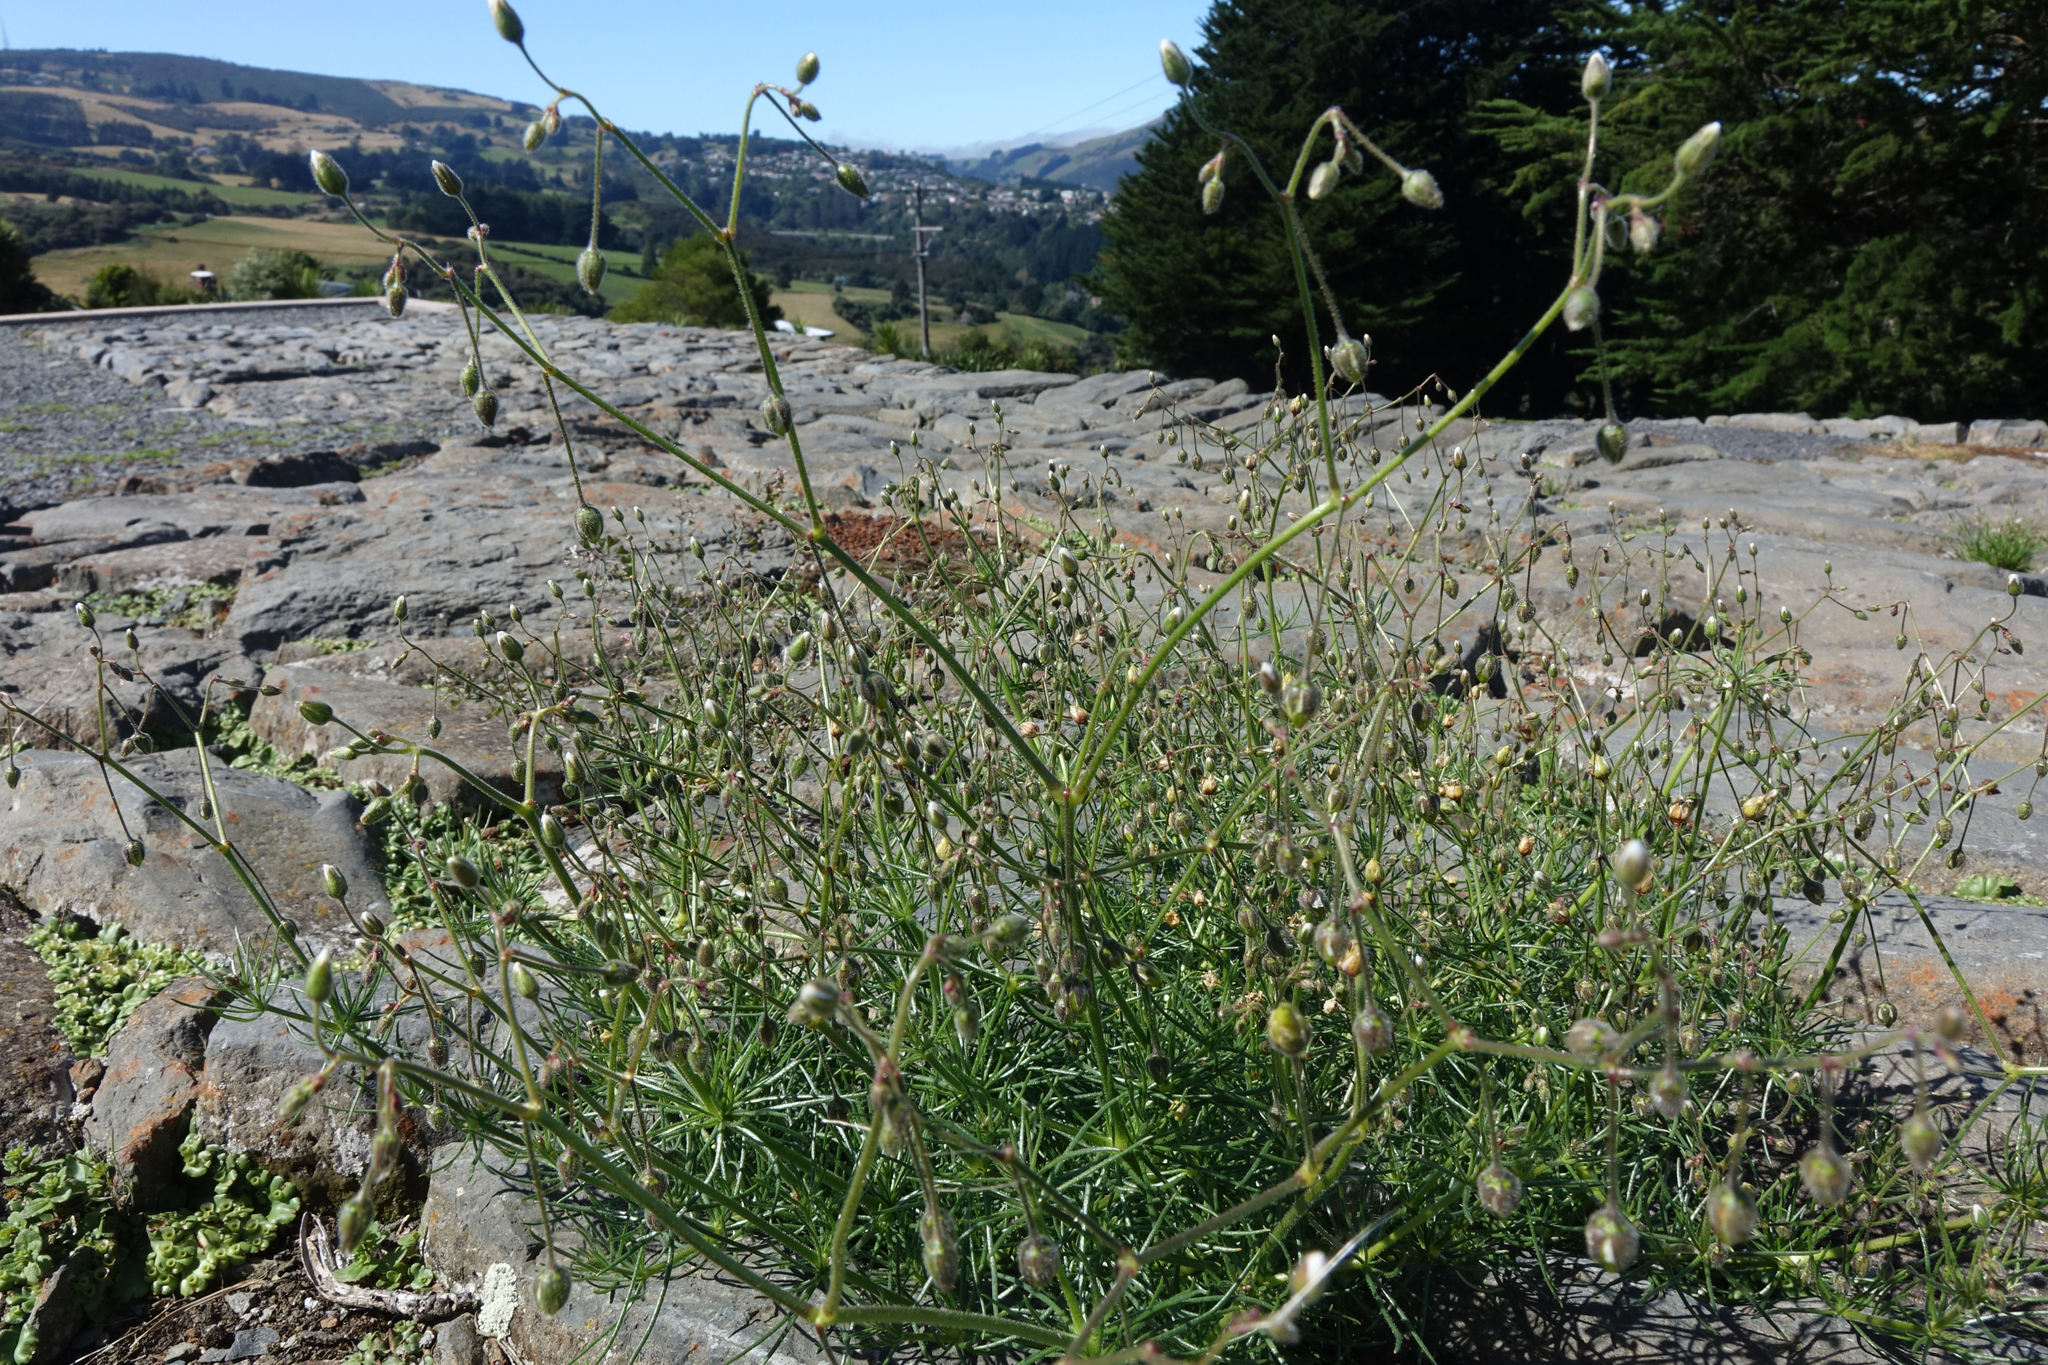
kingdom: Plantae
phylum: Tracheophyta
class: Magnoliopsida
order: Caryophyllales
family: Caryophyllaceae
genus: Spergula
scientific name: Spergula arvensis
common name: Corn spurrey
